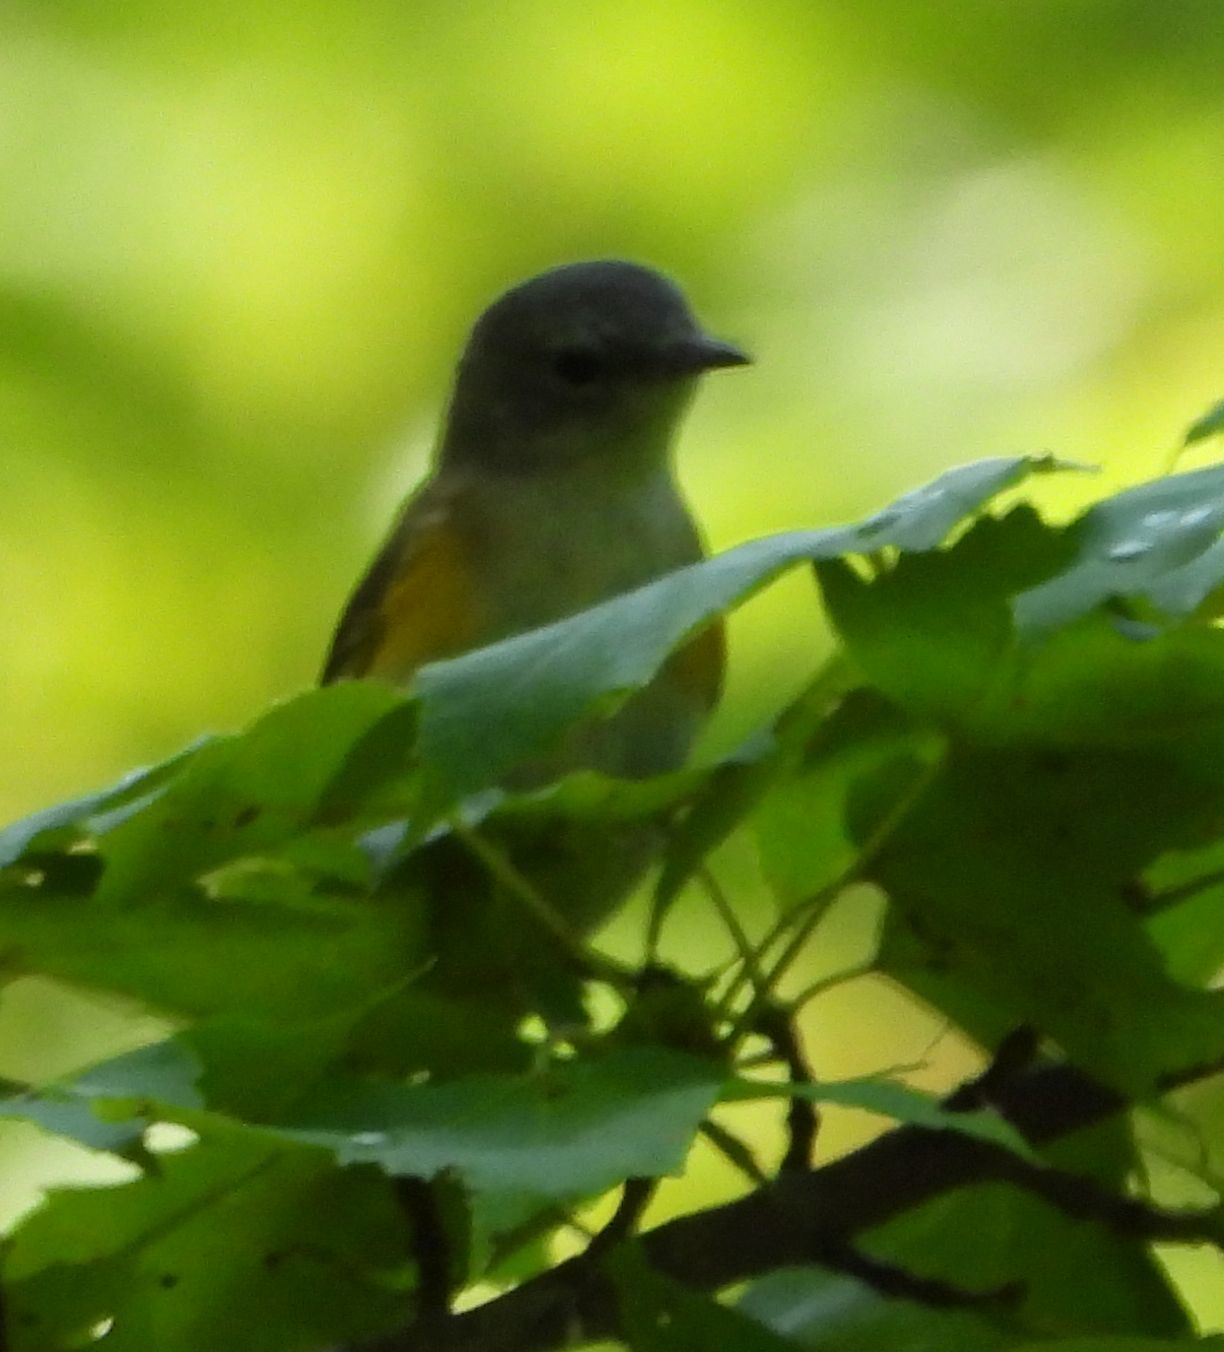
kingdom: Animalia
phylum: Chordata
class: Aves
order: Passeriformes
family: Parulidae
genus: Setophaga
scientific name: Setophaga ruticilla
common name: American redstart
